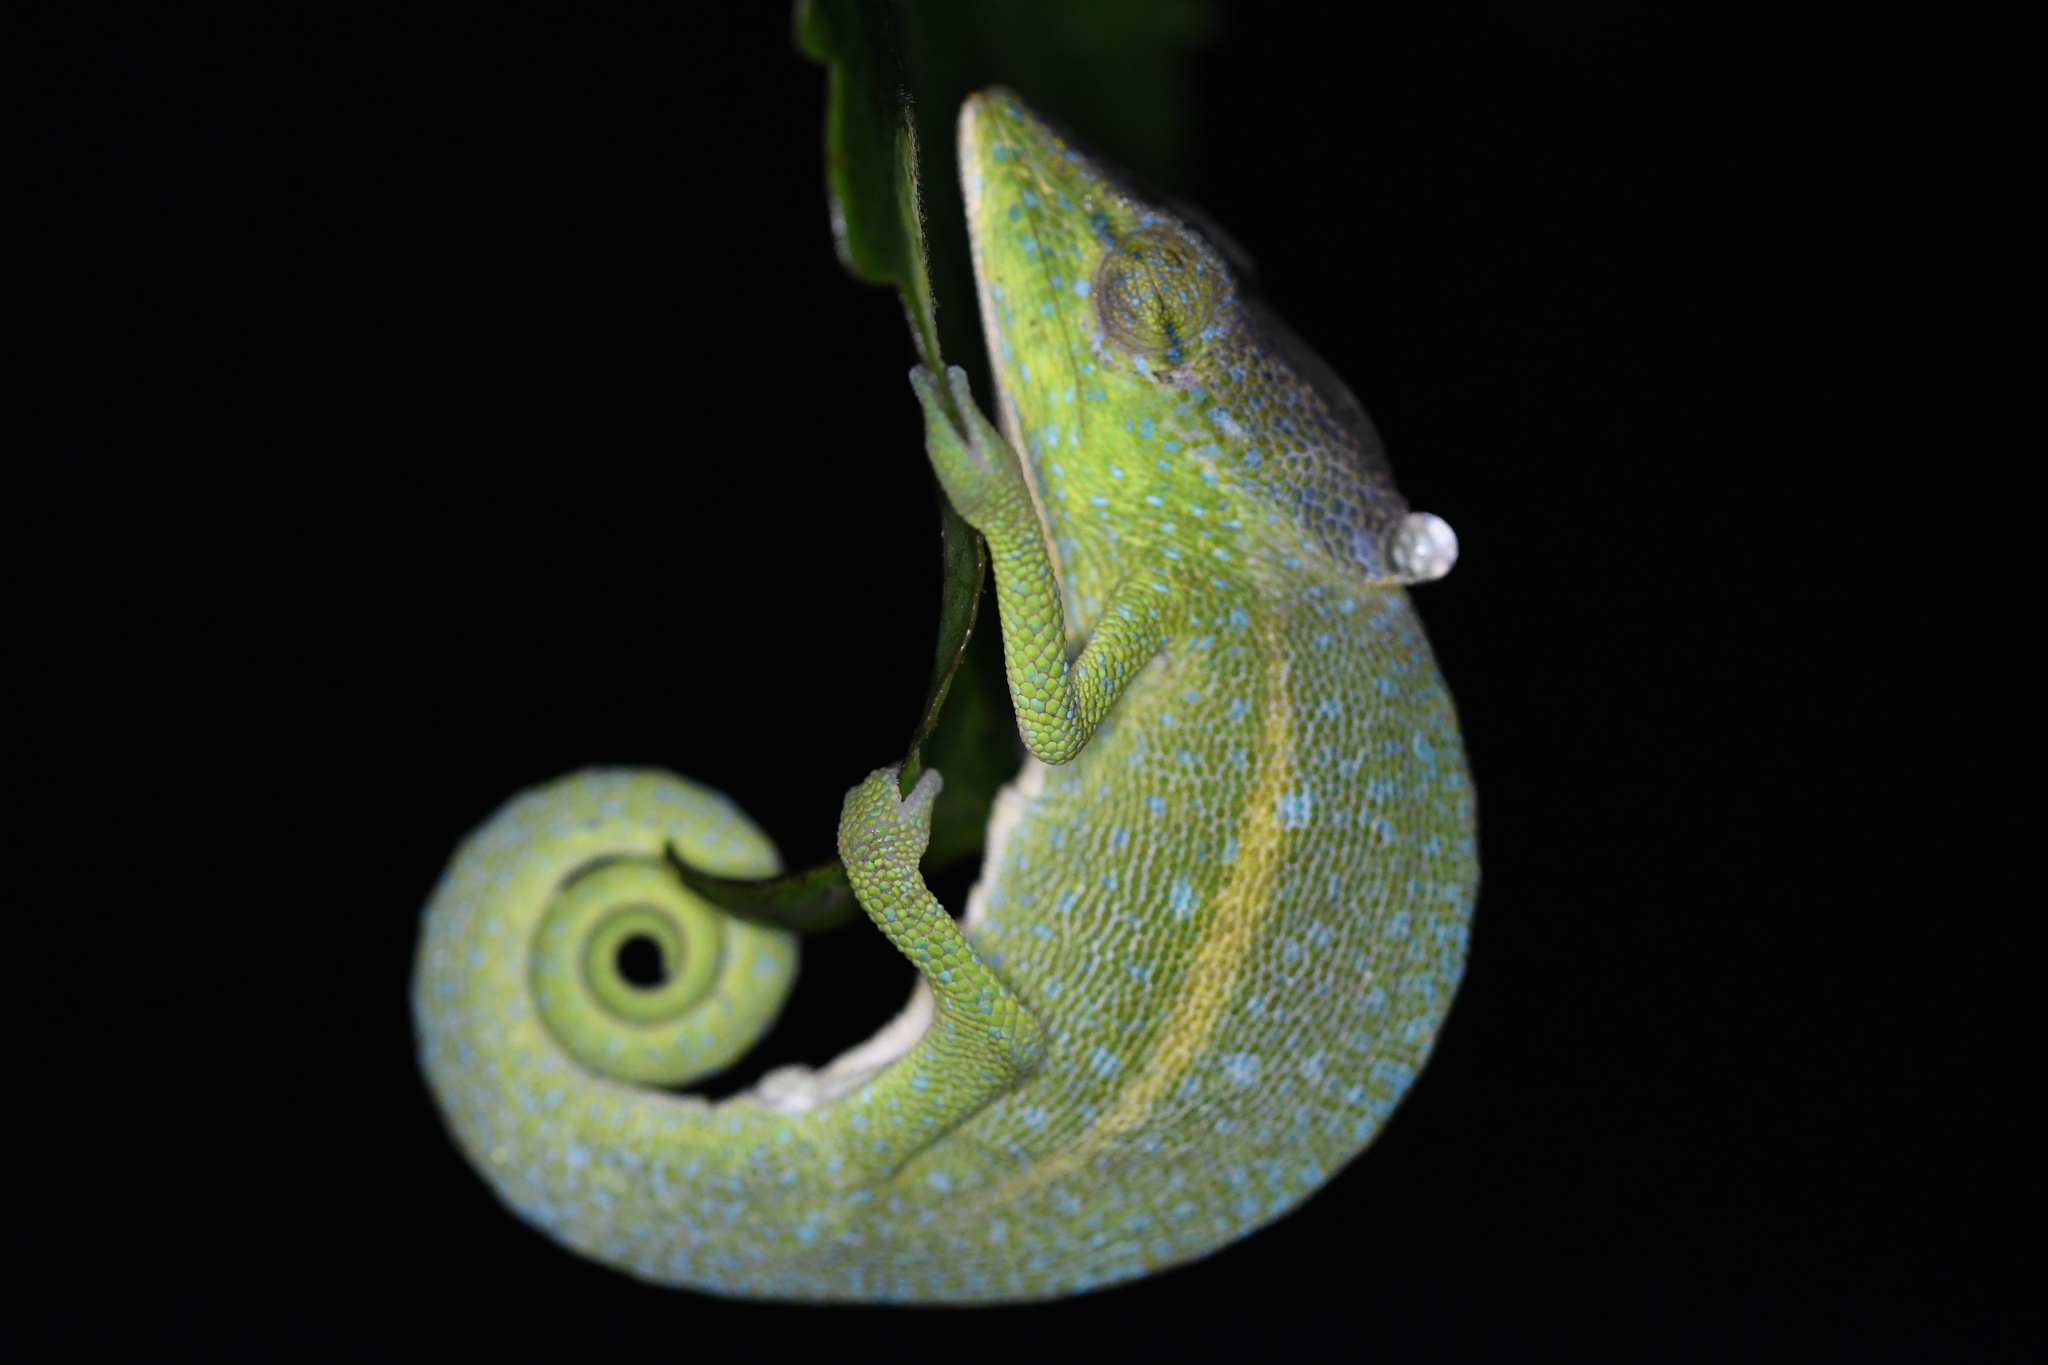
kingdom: Animalia
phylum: Chordata
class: Squamata
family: Chamaeleonidae
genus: Calumma
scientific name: Calumma glawi
